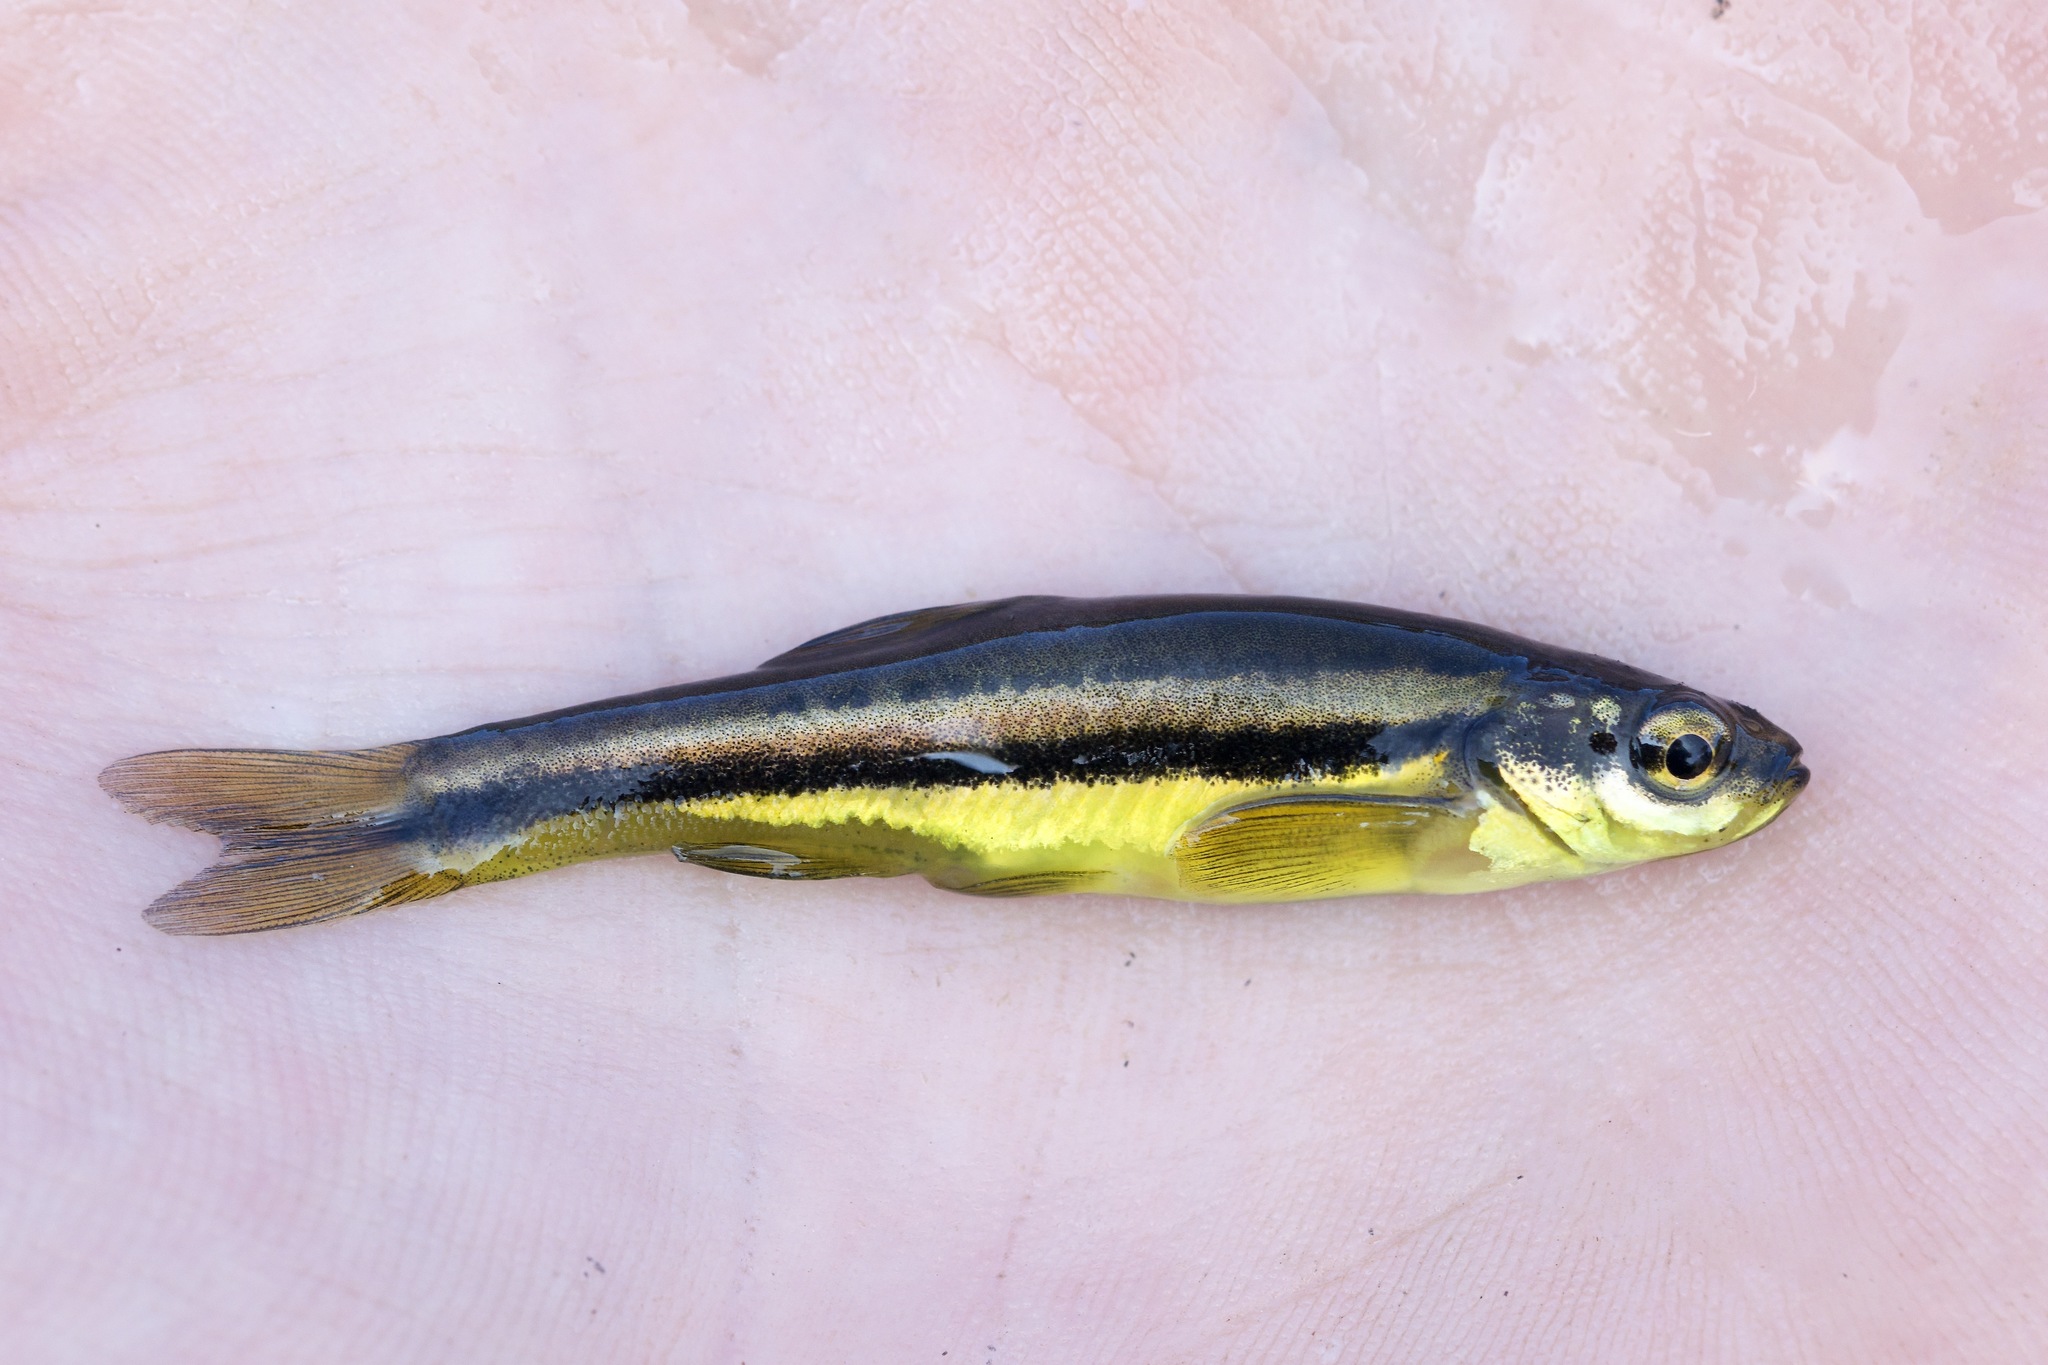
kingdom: Animalia
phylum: Chordata
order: Cypriniformes
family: Cyprinidae
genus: Chrosomus
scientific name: Chrosomus eos
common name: Northern redbelly dace
